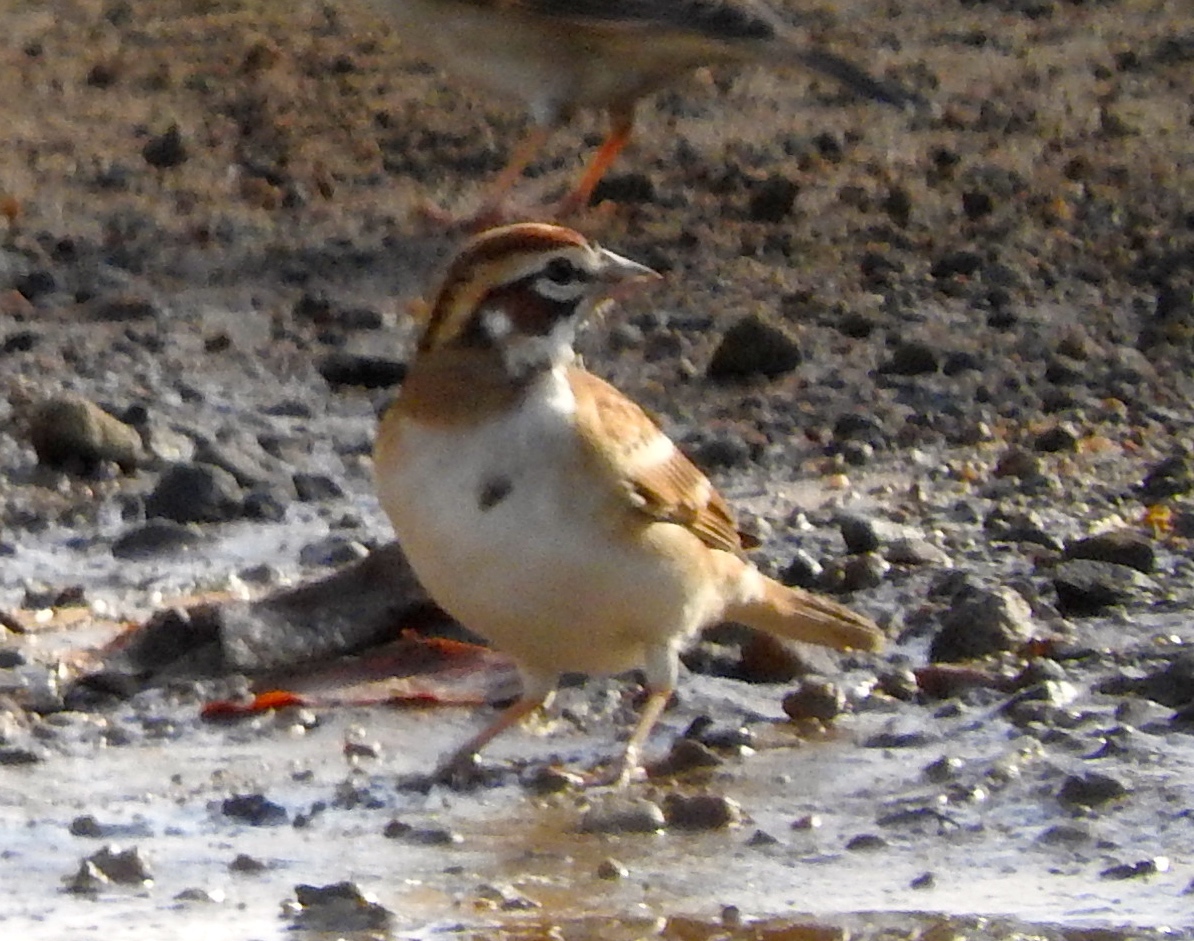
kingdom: Animalia
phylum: Chordata
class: Aves
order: Passeriformes
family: Passerellidae
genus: Chondestes
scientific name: Chondestes grammacus
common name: Lark sparrow
